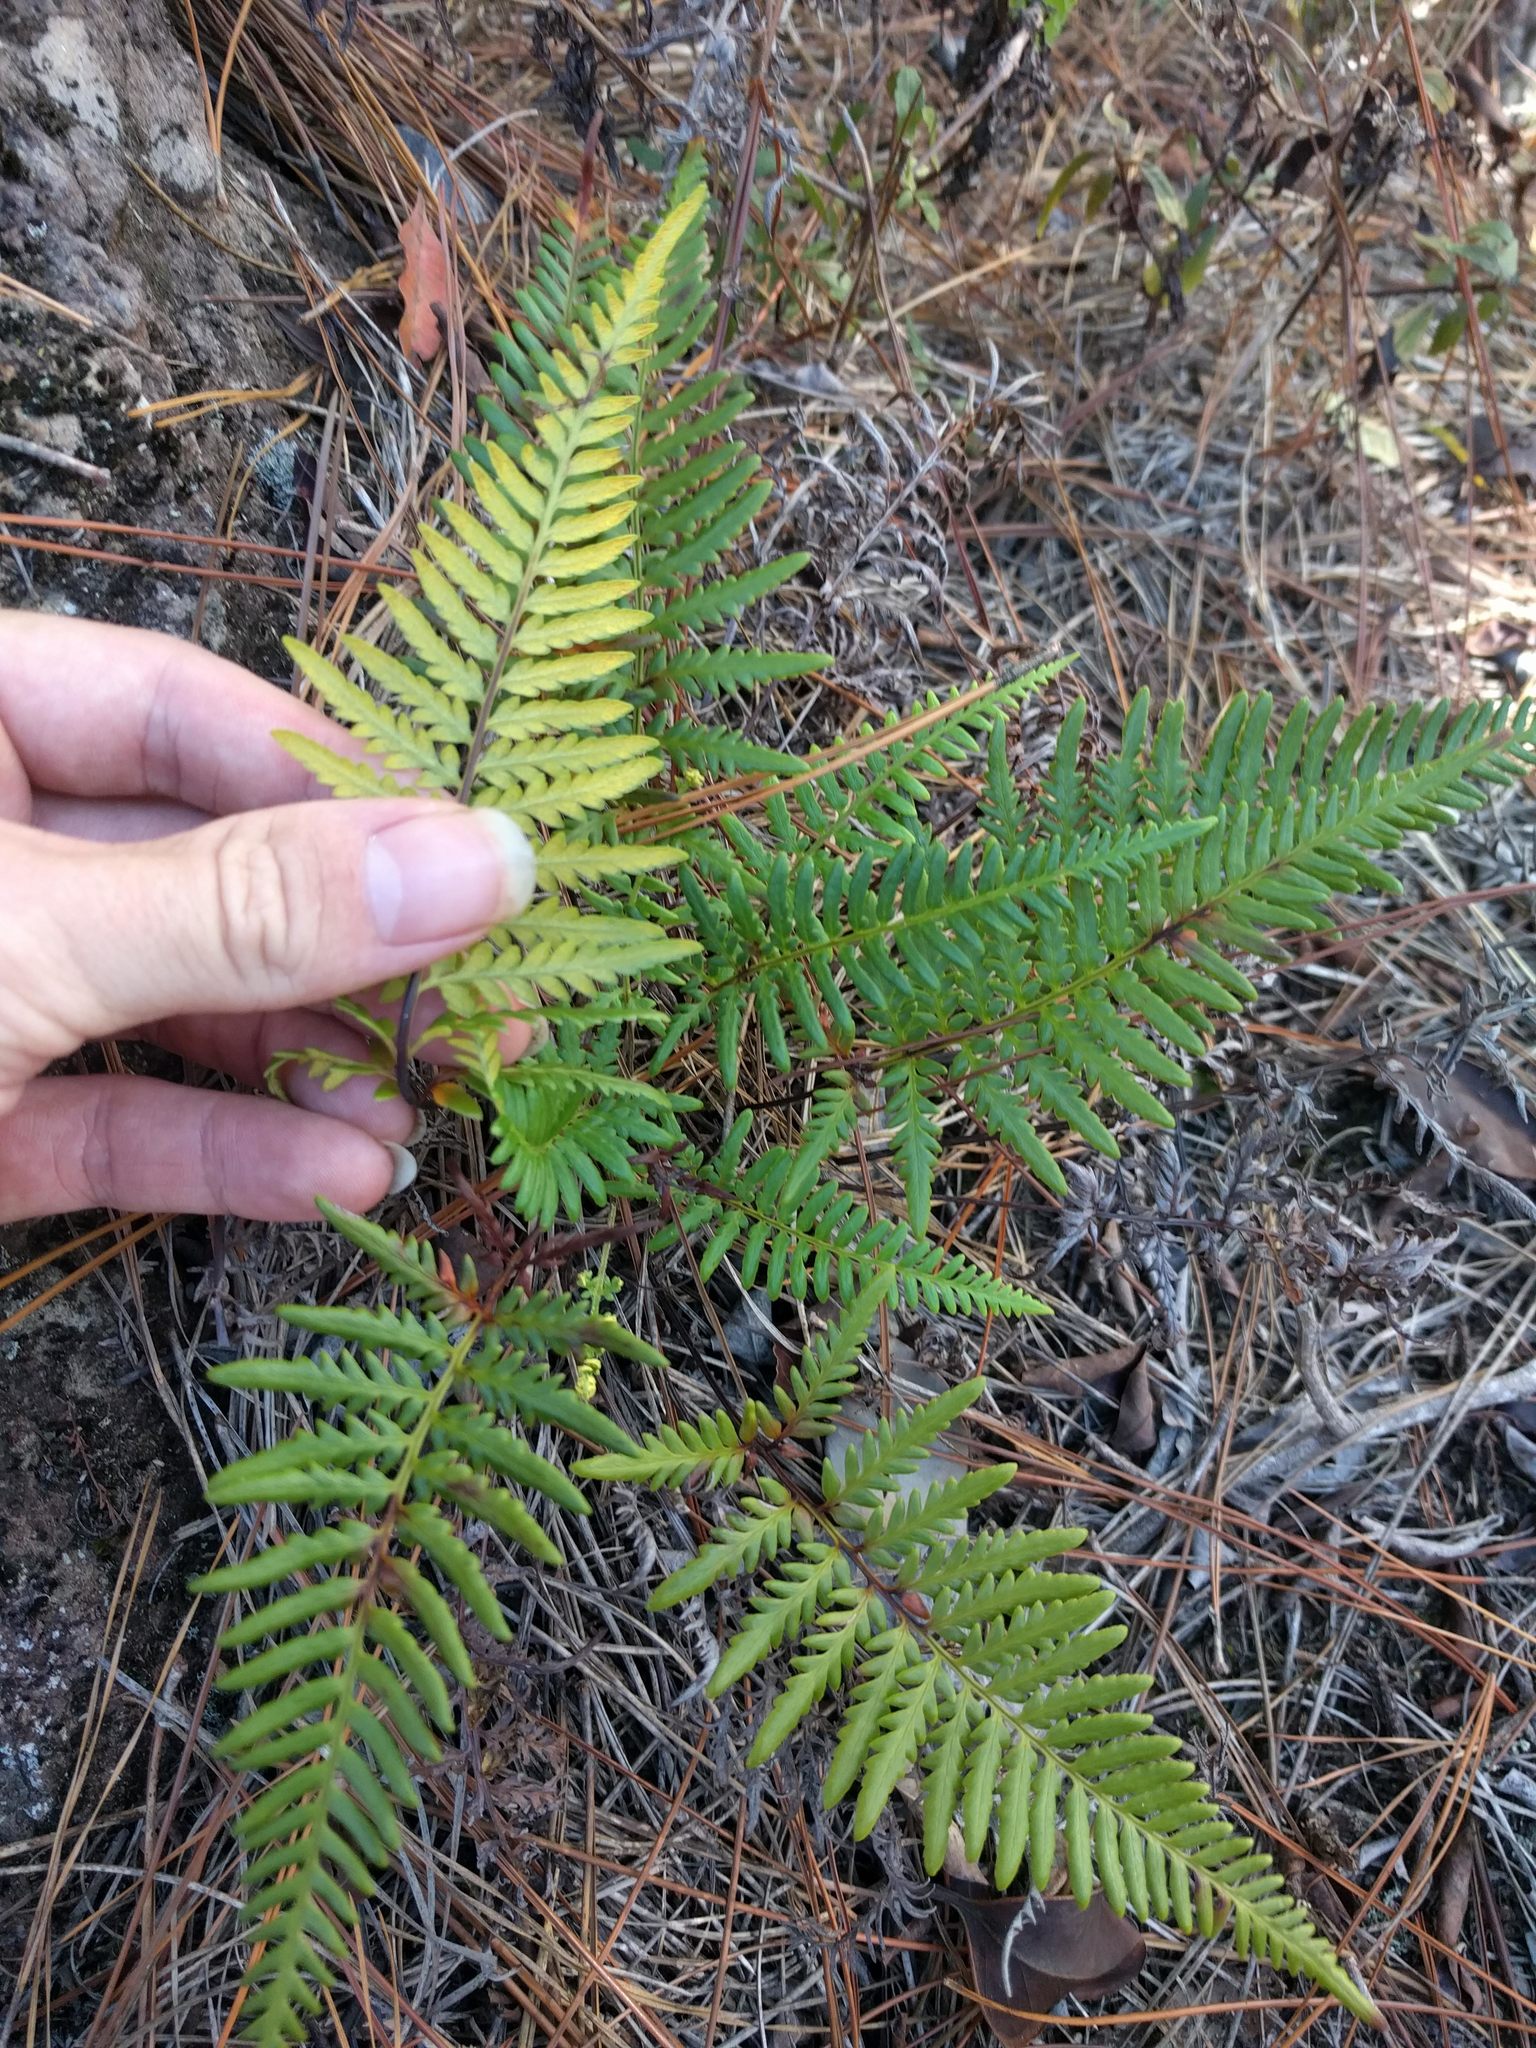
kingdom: Plantae
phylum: Tracheophyta
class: Polypodiopsida
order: Polypodiales
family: Pteridaceae
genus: Pityrogramma
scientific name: Pityrogramma austroamericana
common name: Leatherleaf goldback fern
